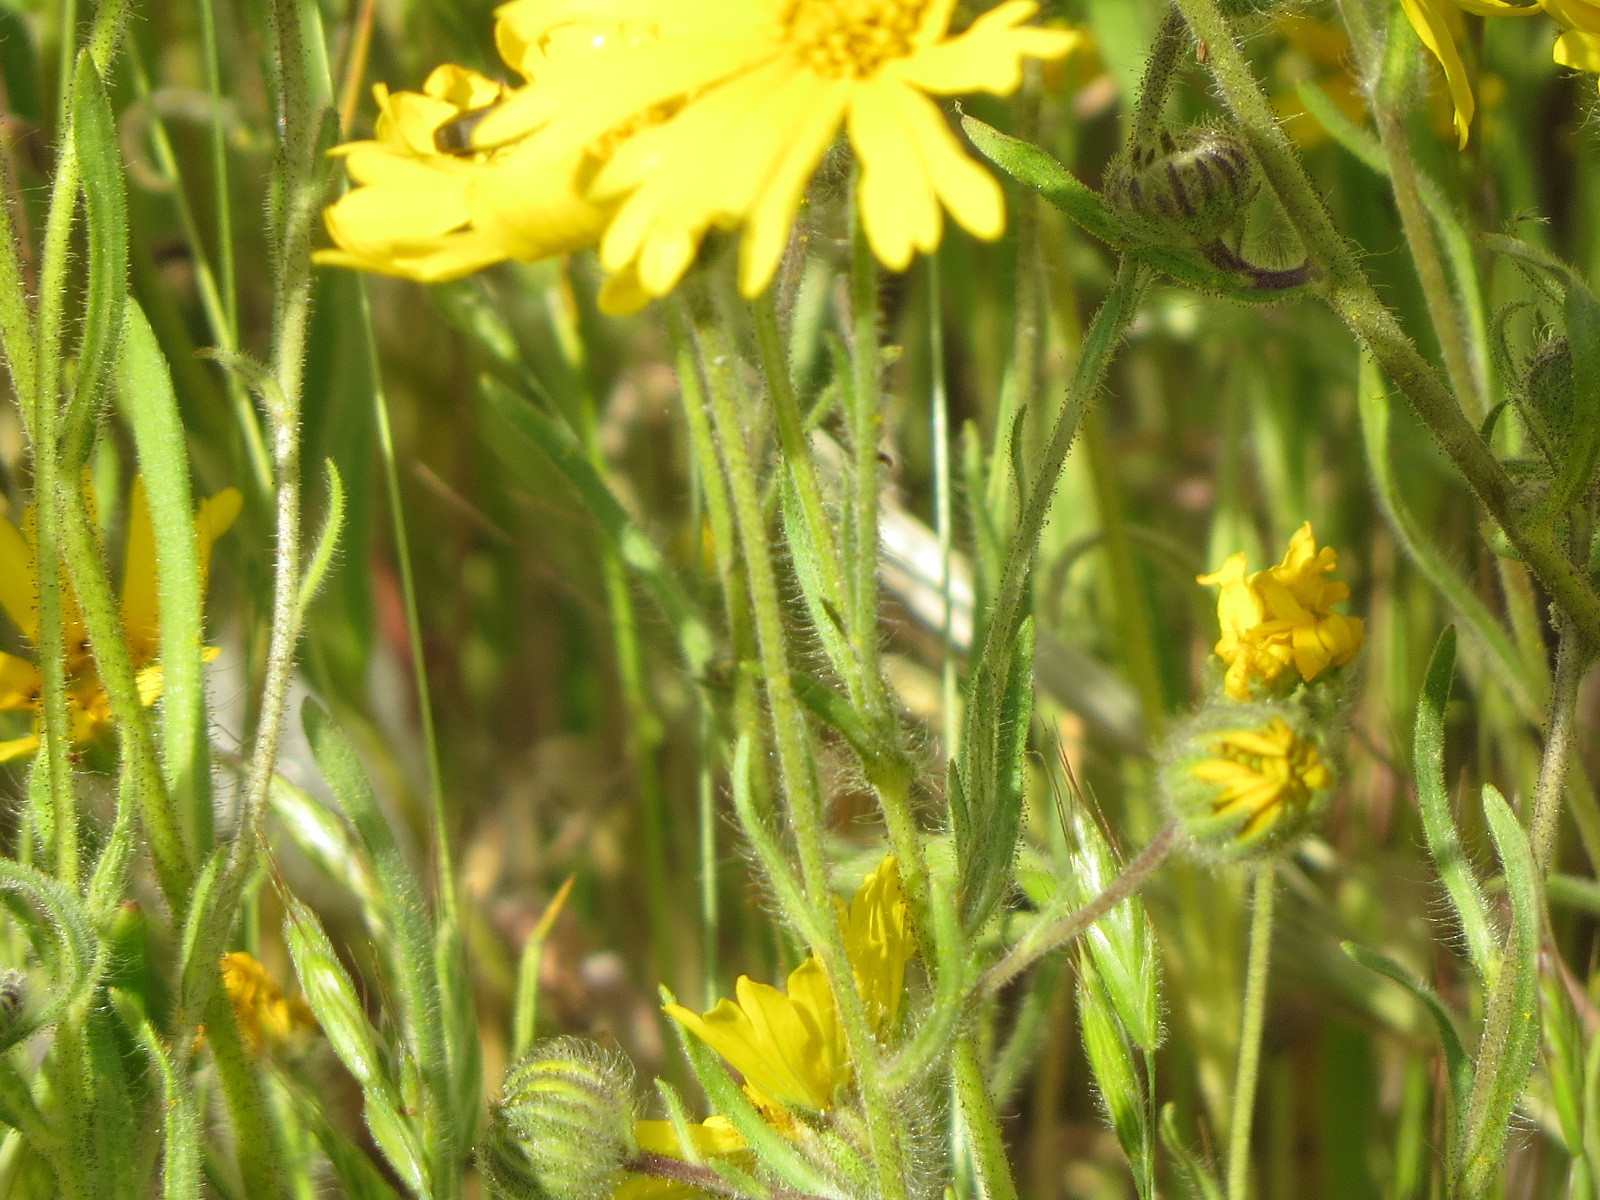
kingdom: Plantae
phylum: Tracheophyta
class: Magnoliopsida
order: Asterales
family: Asteraceae
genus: Madia
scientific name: Madia elegans
